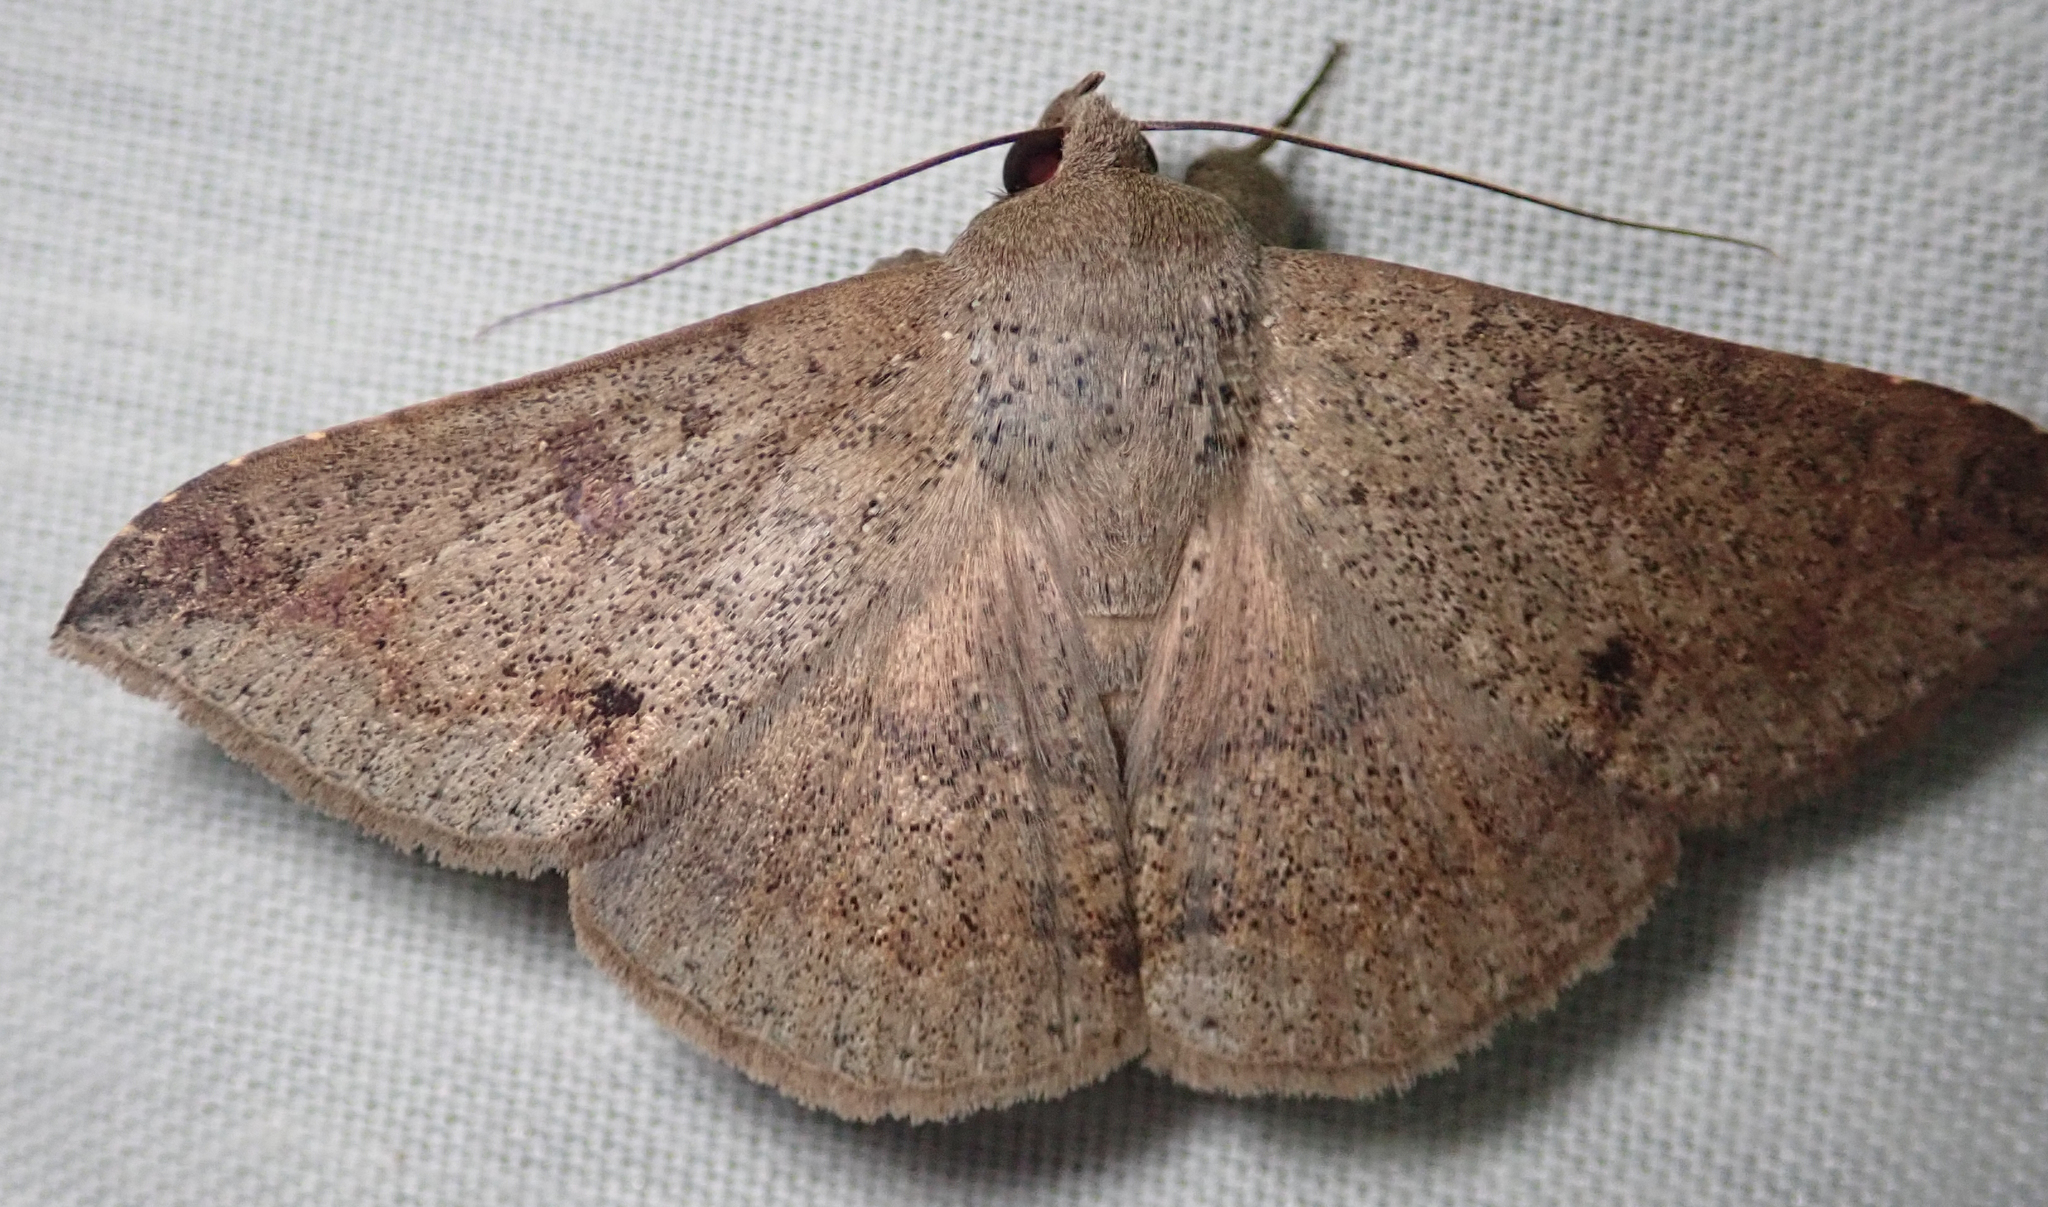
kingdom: Animalia
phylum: Arthropoda
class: Insecta
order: Lepidoptera
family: Erebidae
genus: Ericeia
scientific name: Ericeia inangulata
